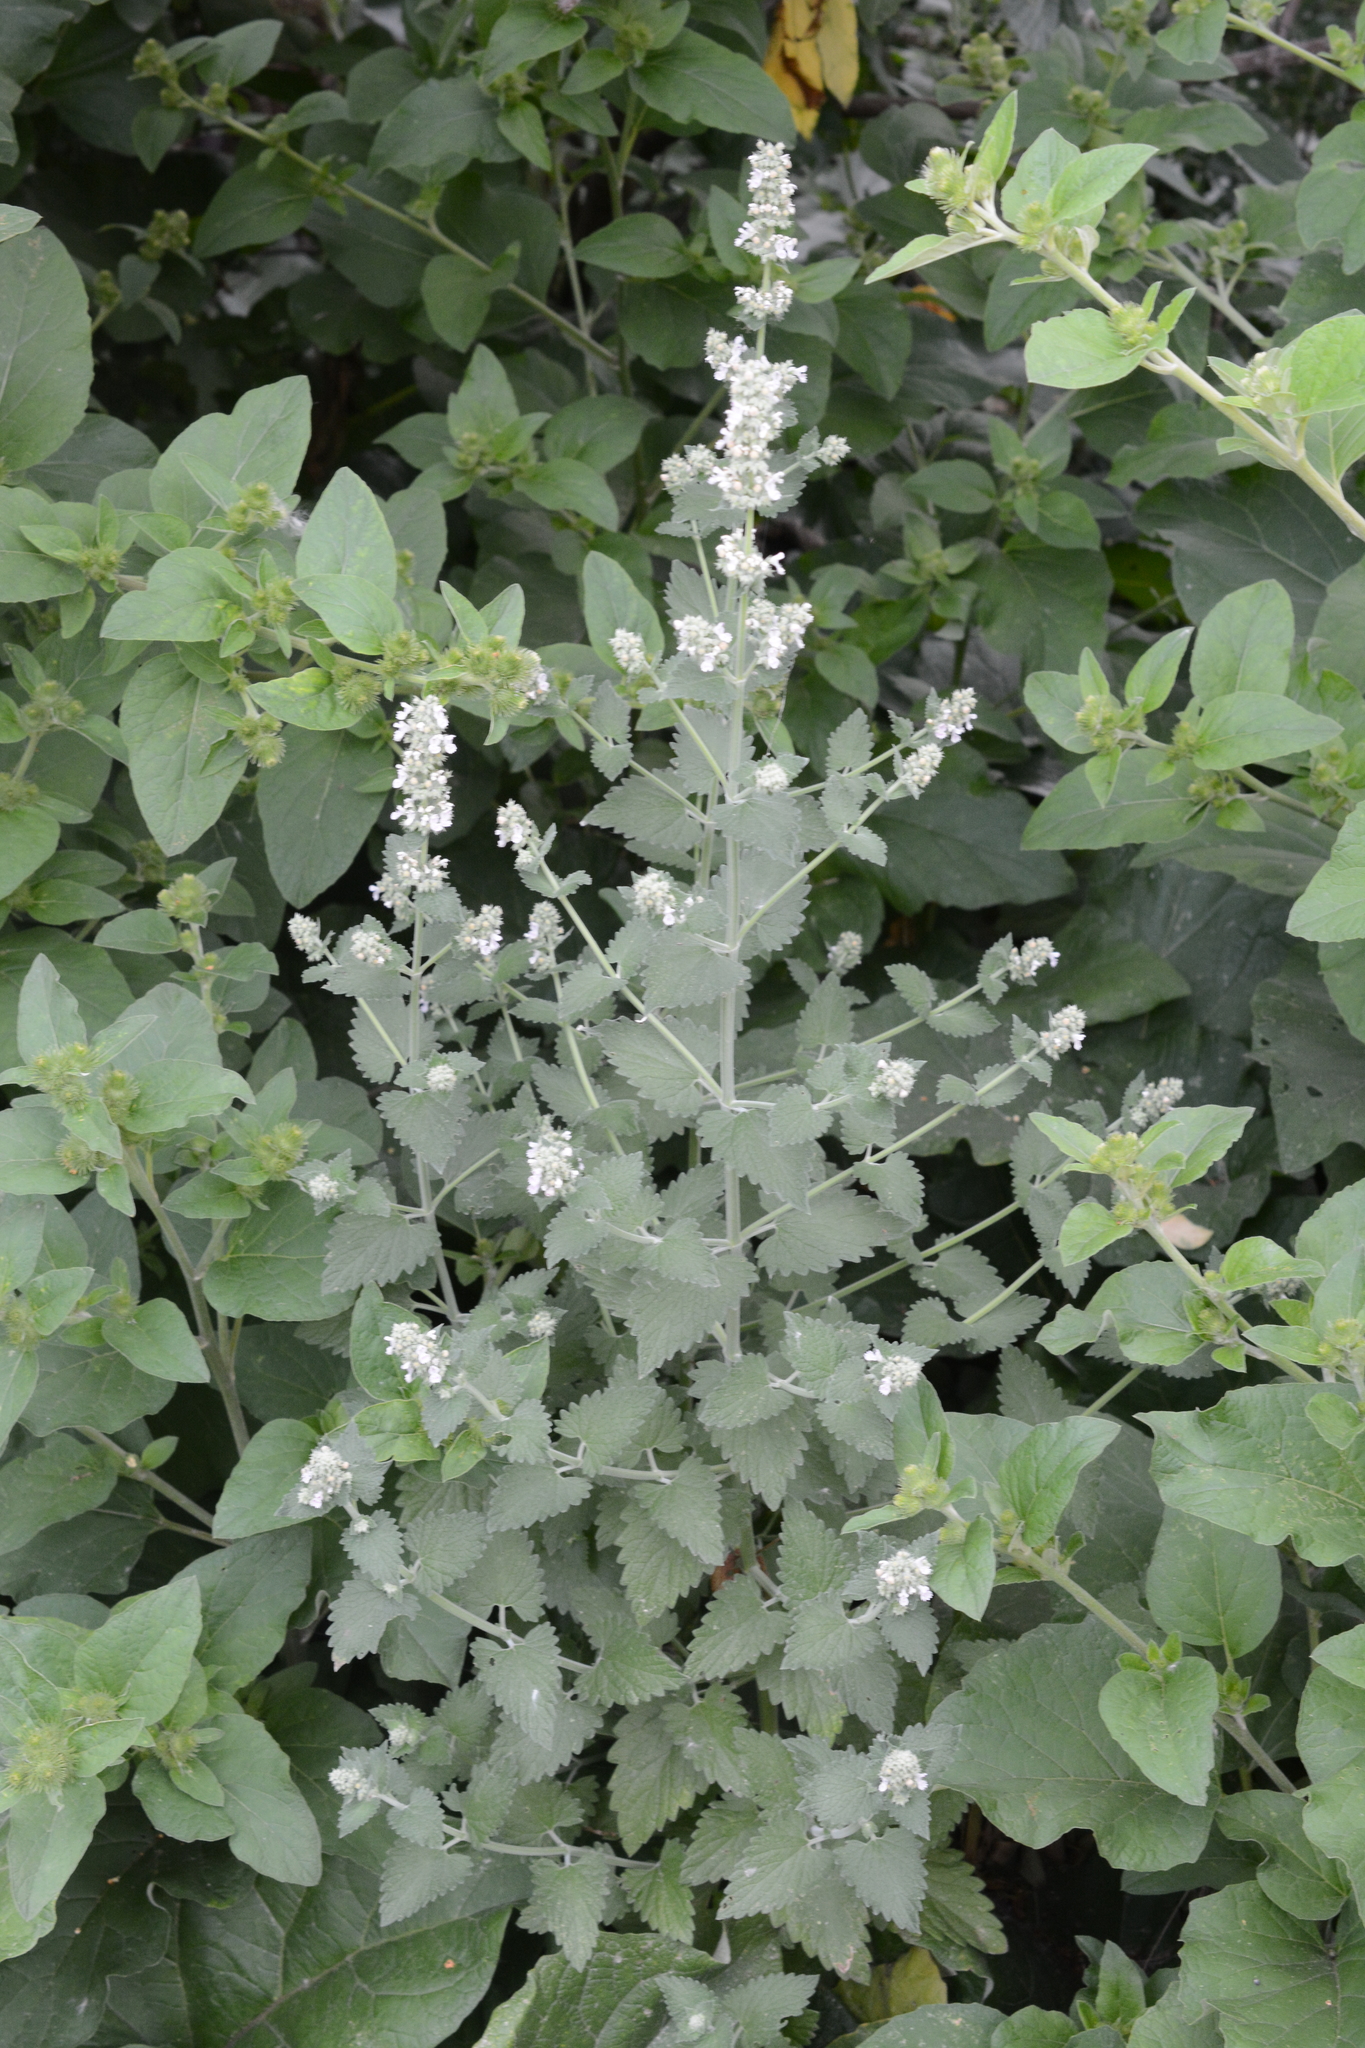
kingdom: Plantae
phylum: Tracheophyta
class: Magnoliopsida
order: Lamiales
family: Lamiaceae
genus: Nepeta
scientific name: Nepeta cataria
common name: Catnip
